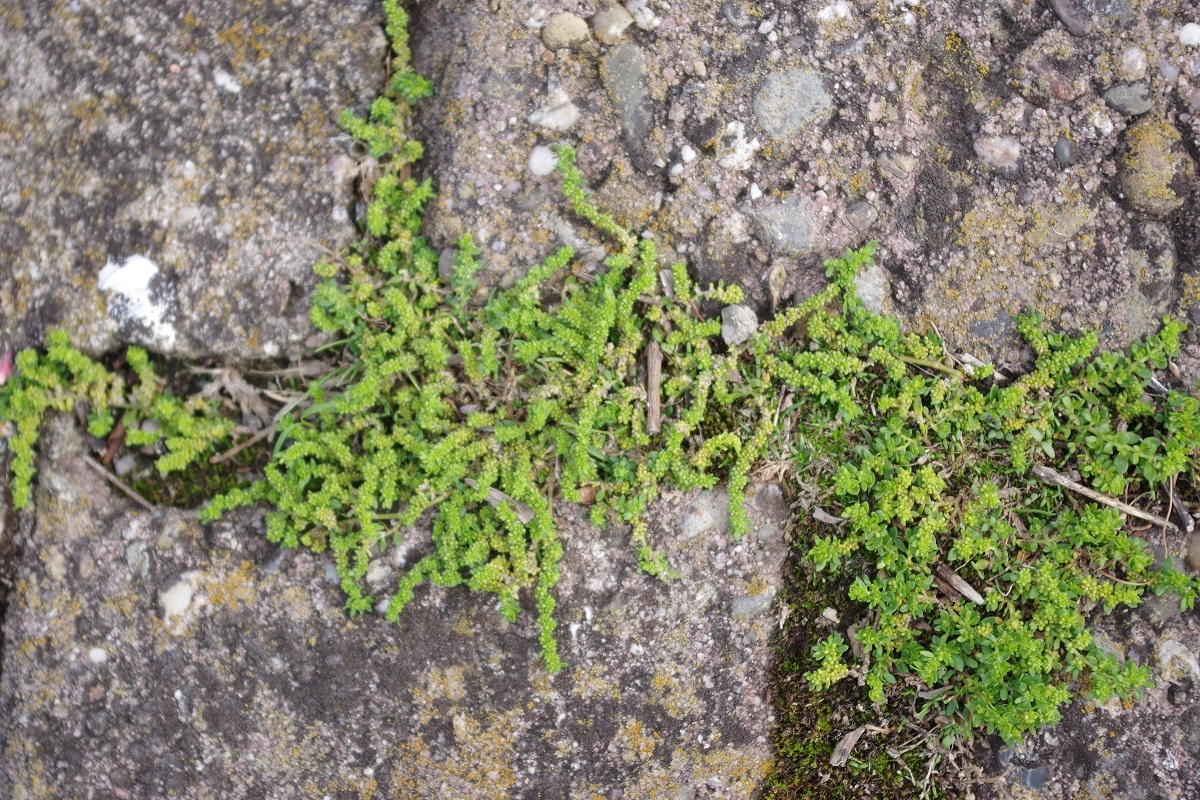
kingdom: Plantae
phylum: Tracheophyta
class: Magnoliopsida
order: Caryophyllales
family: Caryophyllaceae
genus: Herniaria
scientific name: Herniaria glabra
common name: Smooth rupturewort
